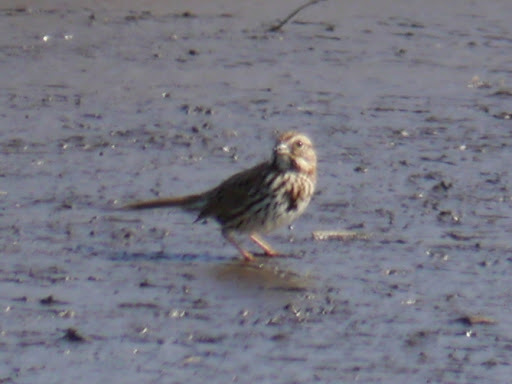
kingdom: Animalia
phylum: Chordata
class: Aves
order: Passeriformes
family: Passerellidae
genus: Melospiza
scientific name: Melospiza melodia
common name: Song sparrow
